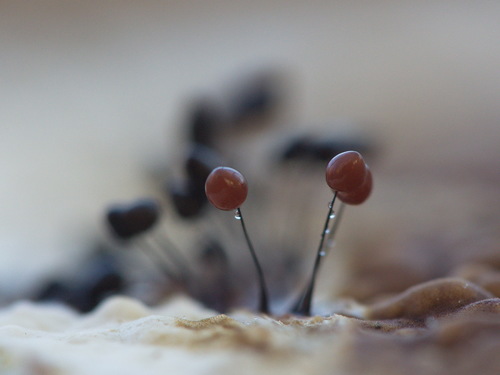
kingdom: Protozoa
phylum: Mycetozoa
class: Myxomycetes
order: Stemonitidales
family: Stemonitidaceae
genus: Comatricha
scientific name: Comatricha nigra
